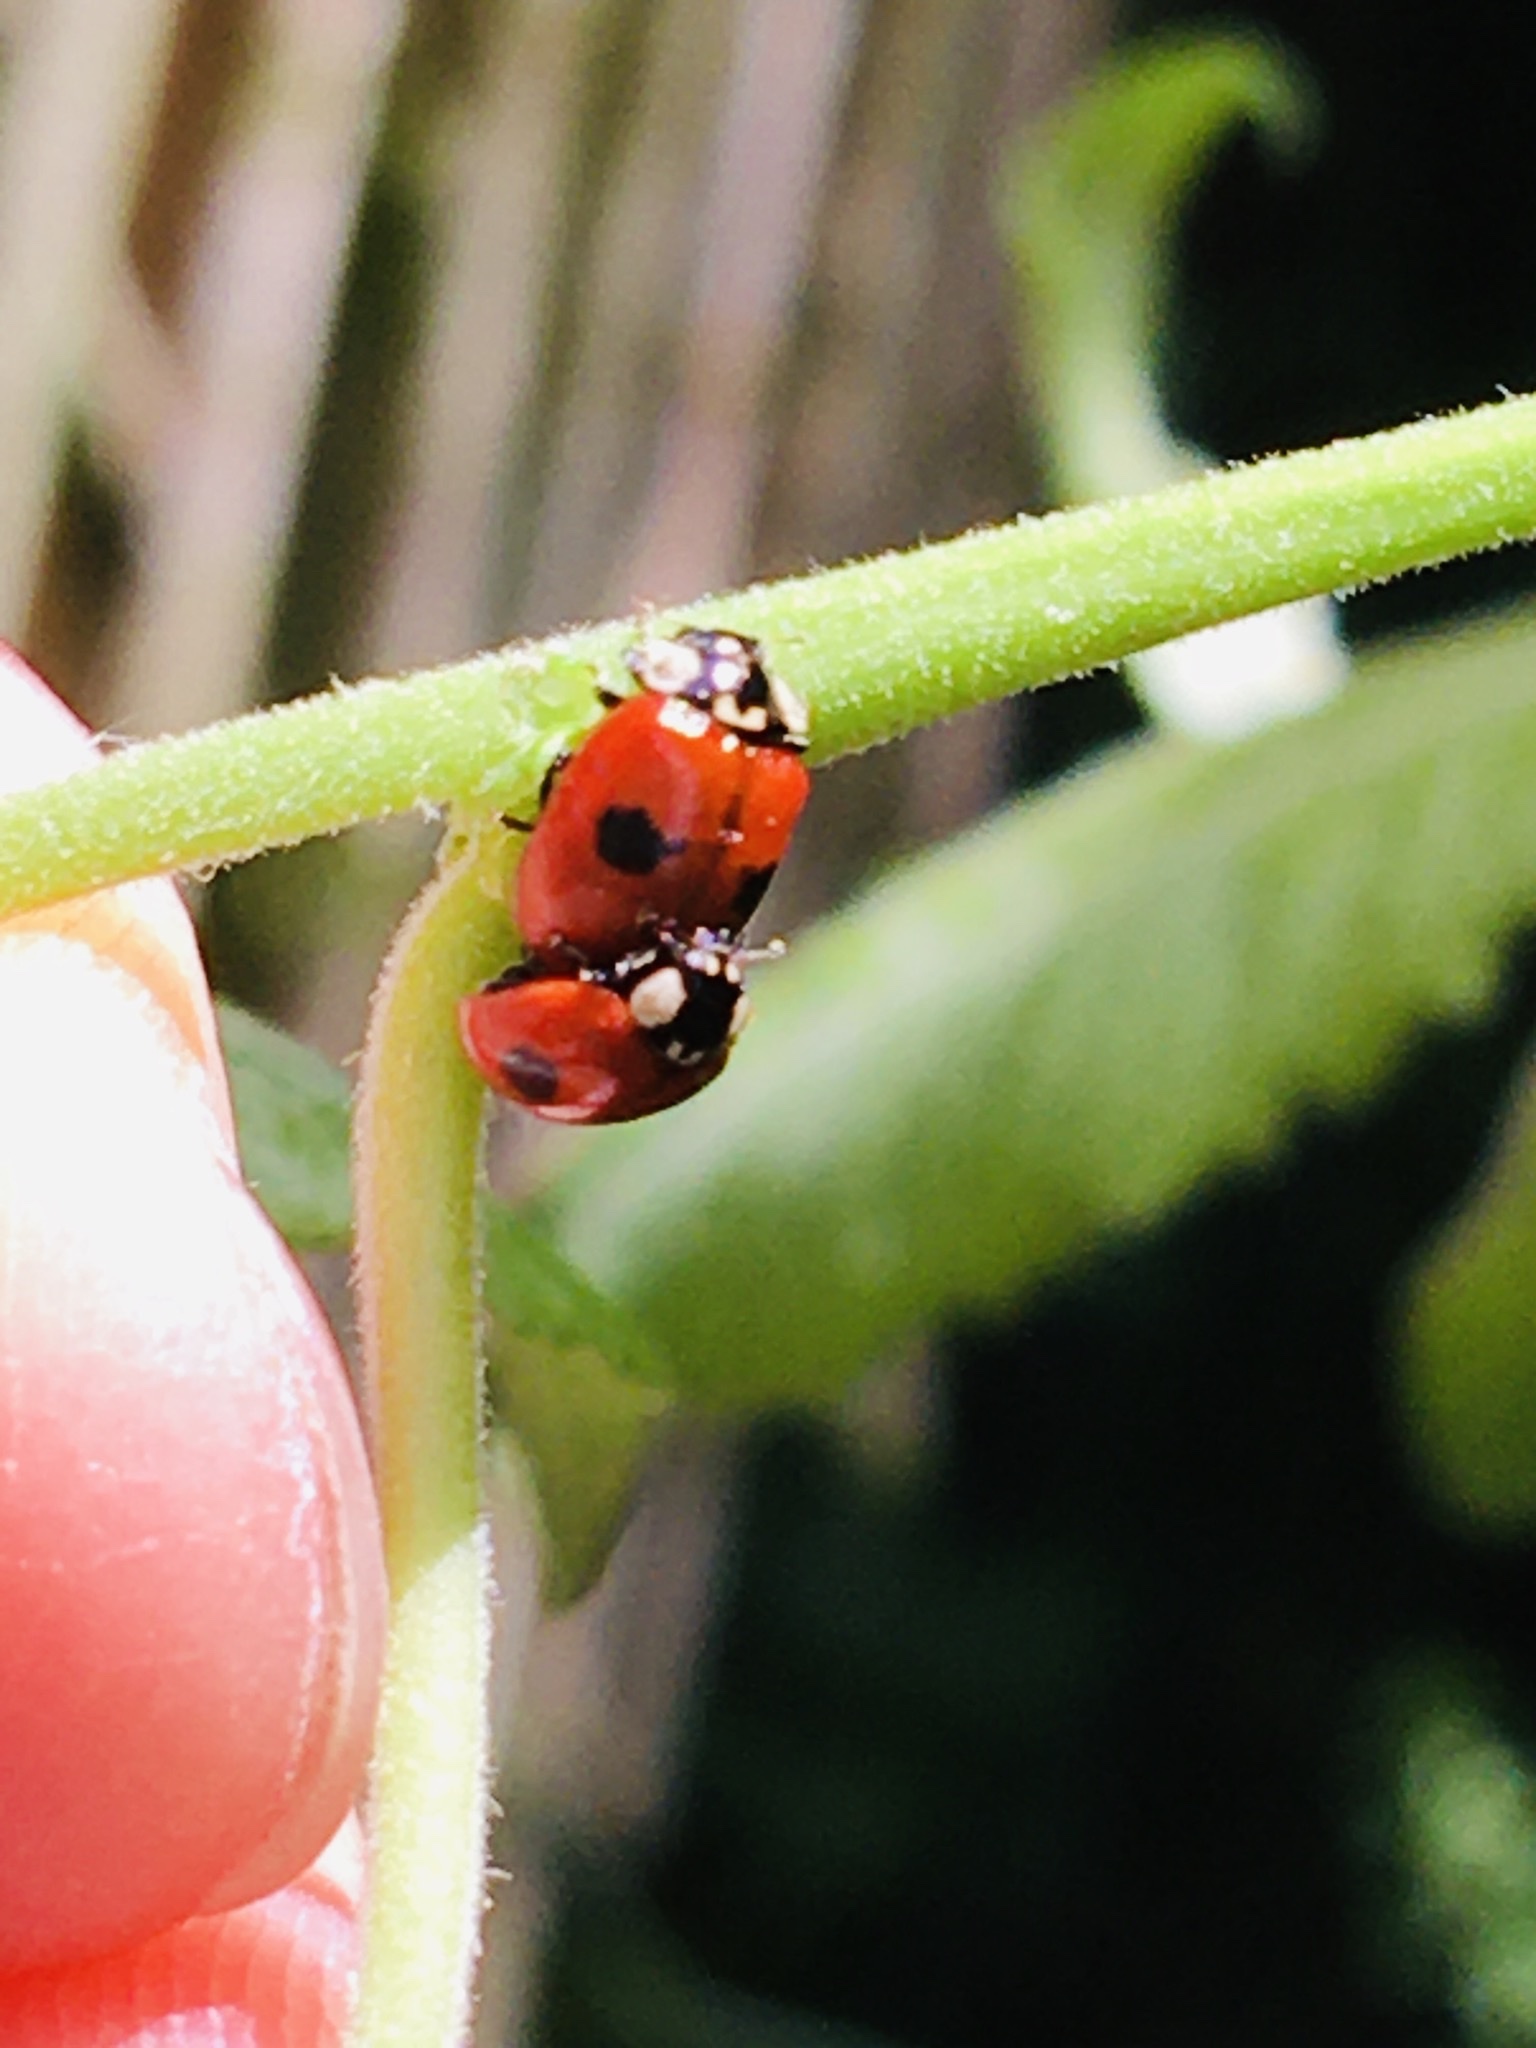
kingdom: Animalia
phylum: Arthropoda
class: Insecta
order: Coleoptera
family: Coccinellidae
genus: Adalia
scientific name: Adalia bipunctata
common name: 2-spot ladybird
